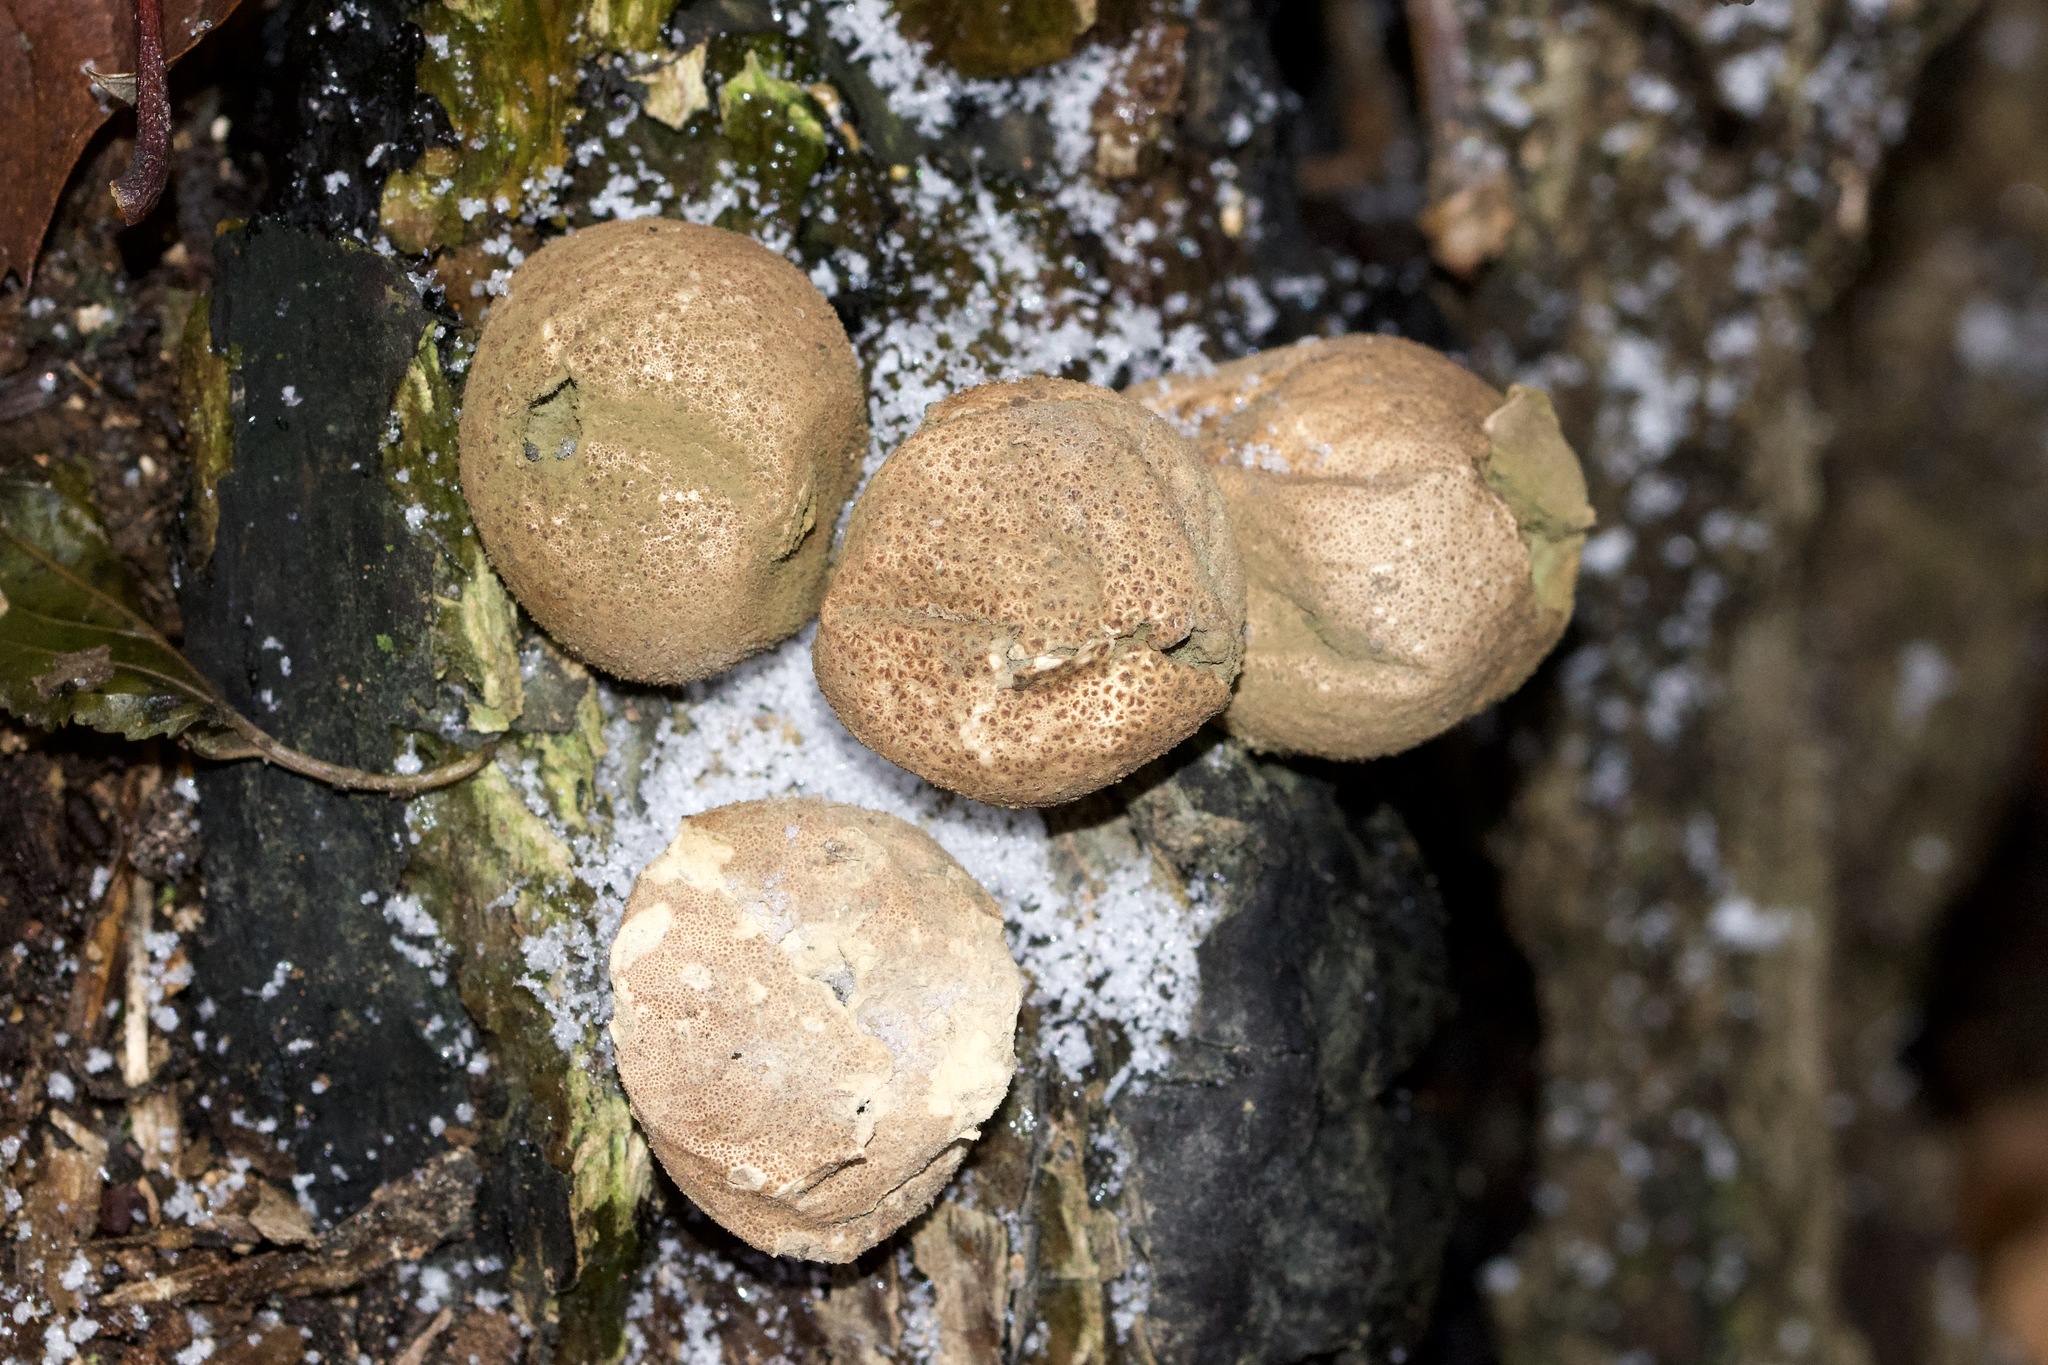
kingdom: Fungi
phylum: Basidiomycota
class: Agaricomycetes
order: Agaricales
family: Lycoperdaceae
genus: Apioperdon
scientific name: Apioperdon pyriforme
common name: Pear-shaped puffball
